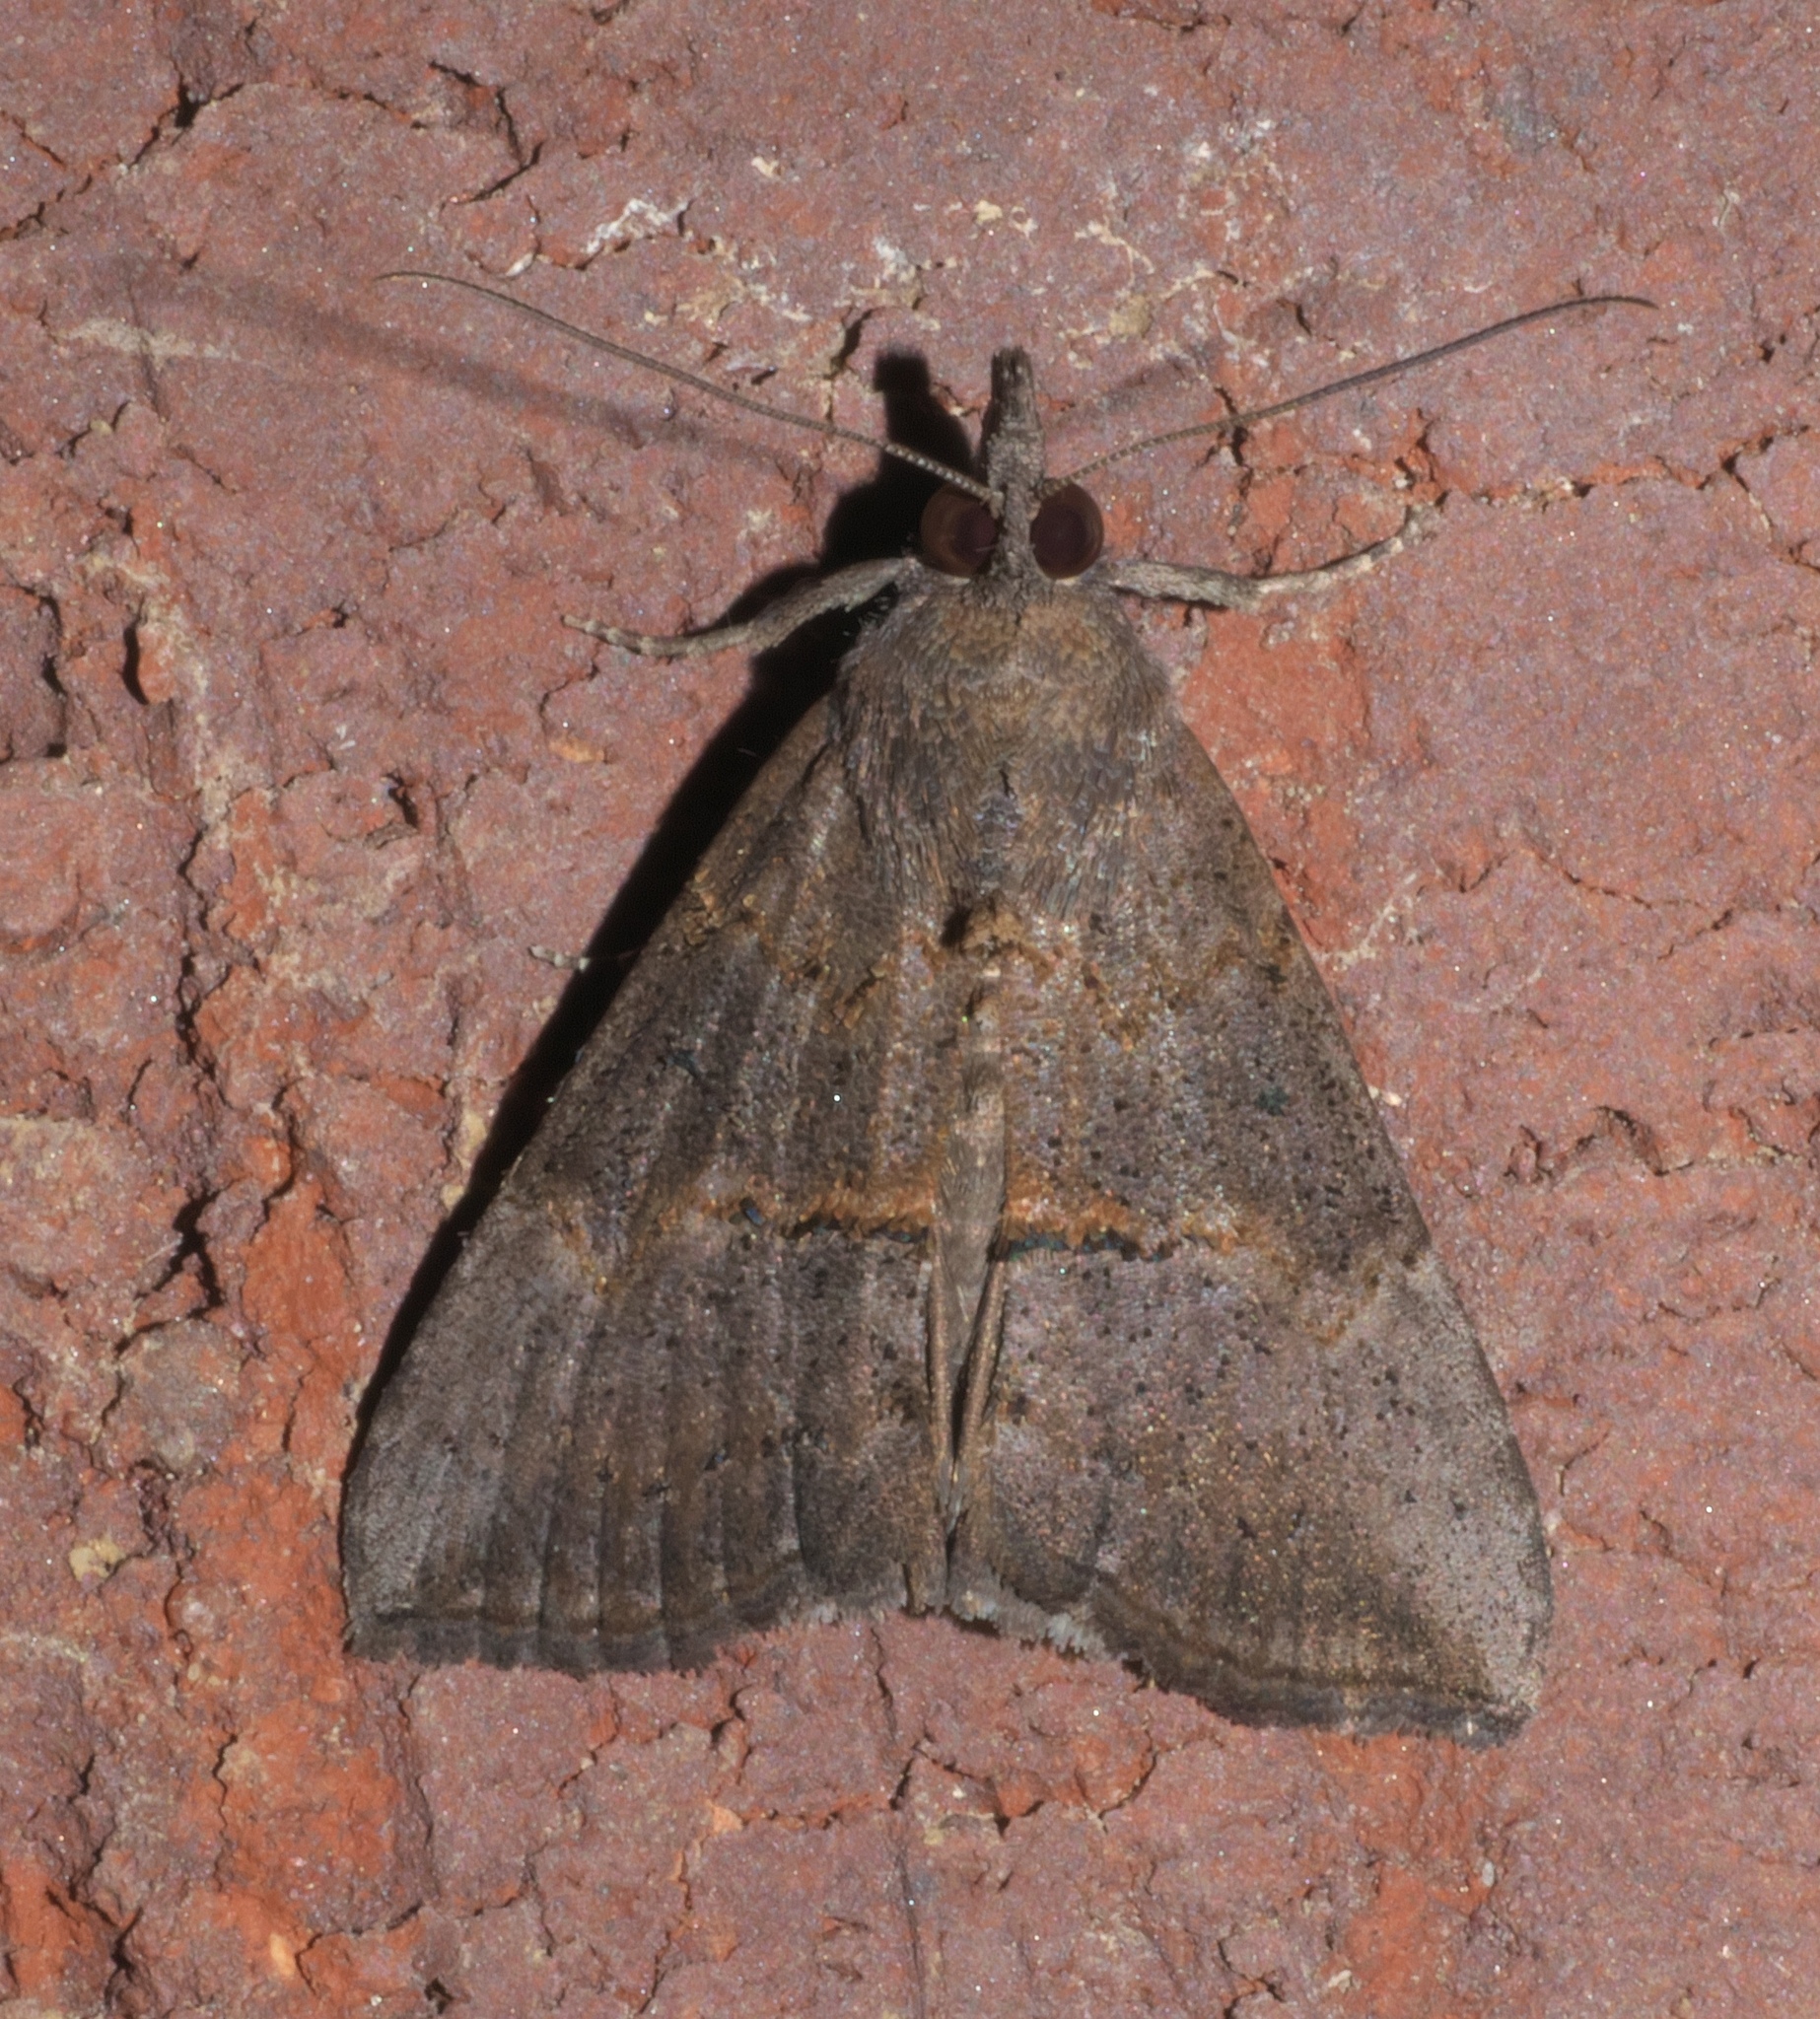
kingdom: Animalia
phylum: Arthropoda
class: Insecta
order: Lepidoptera
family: Erebidae
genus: Hypena
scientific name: Hypena scabra
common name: Green cloverworm
